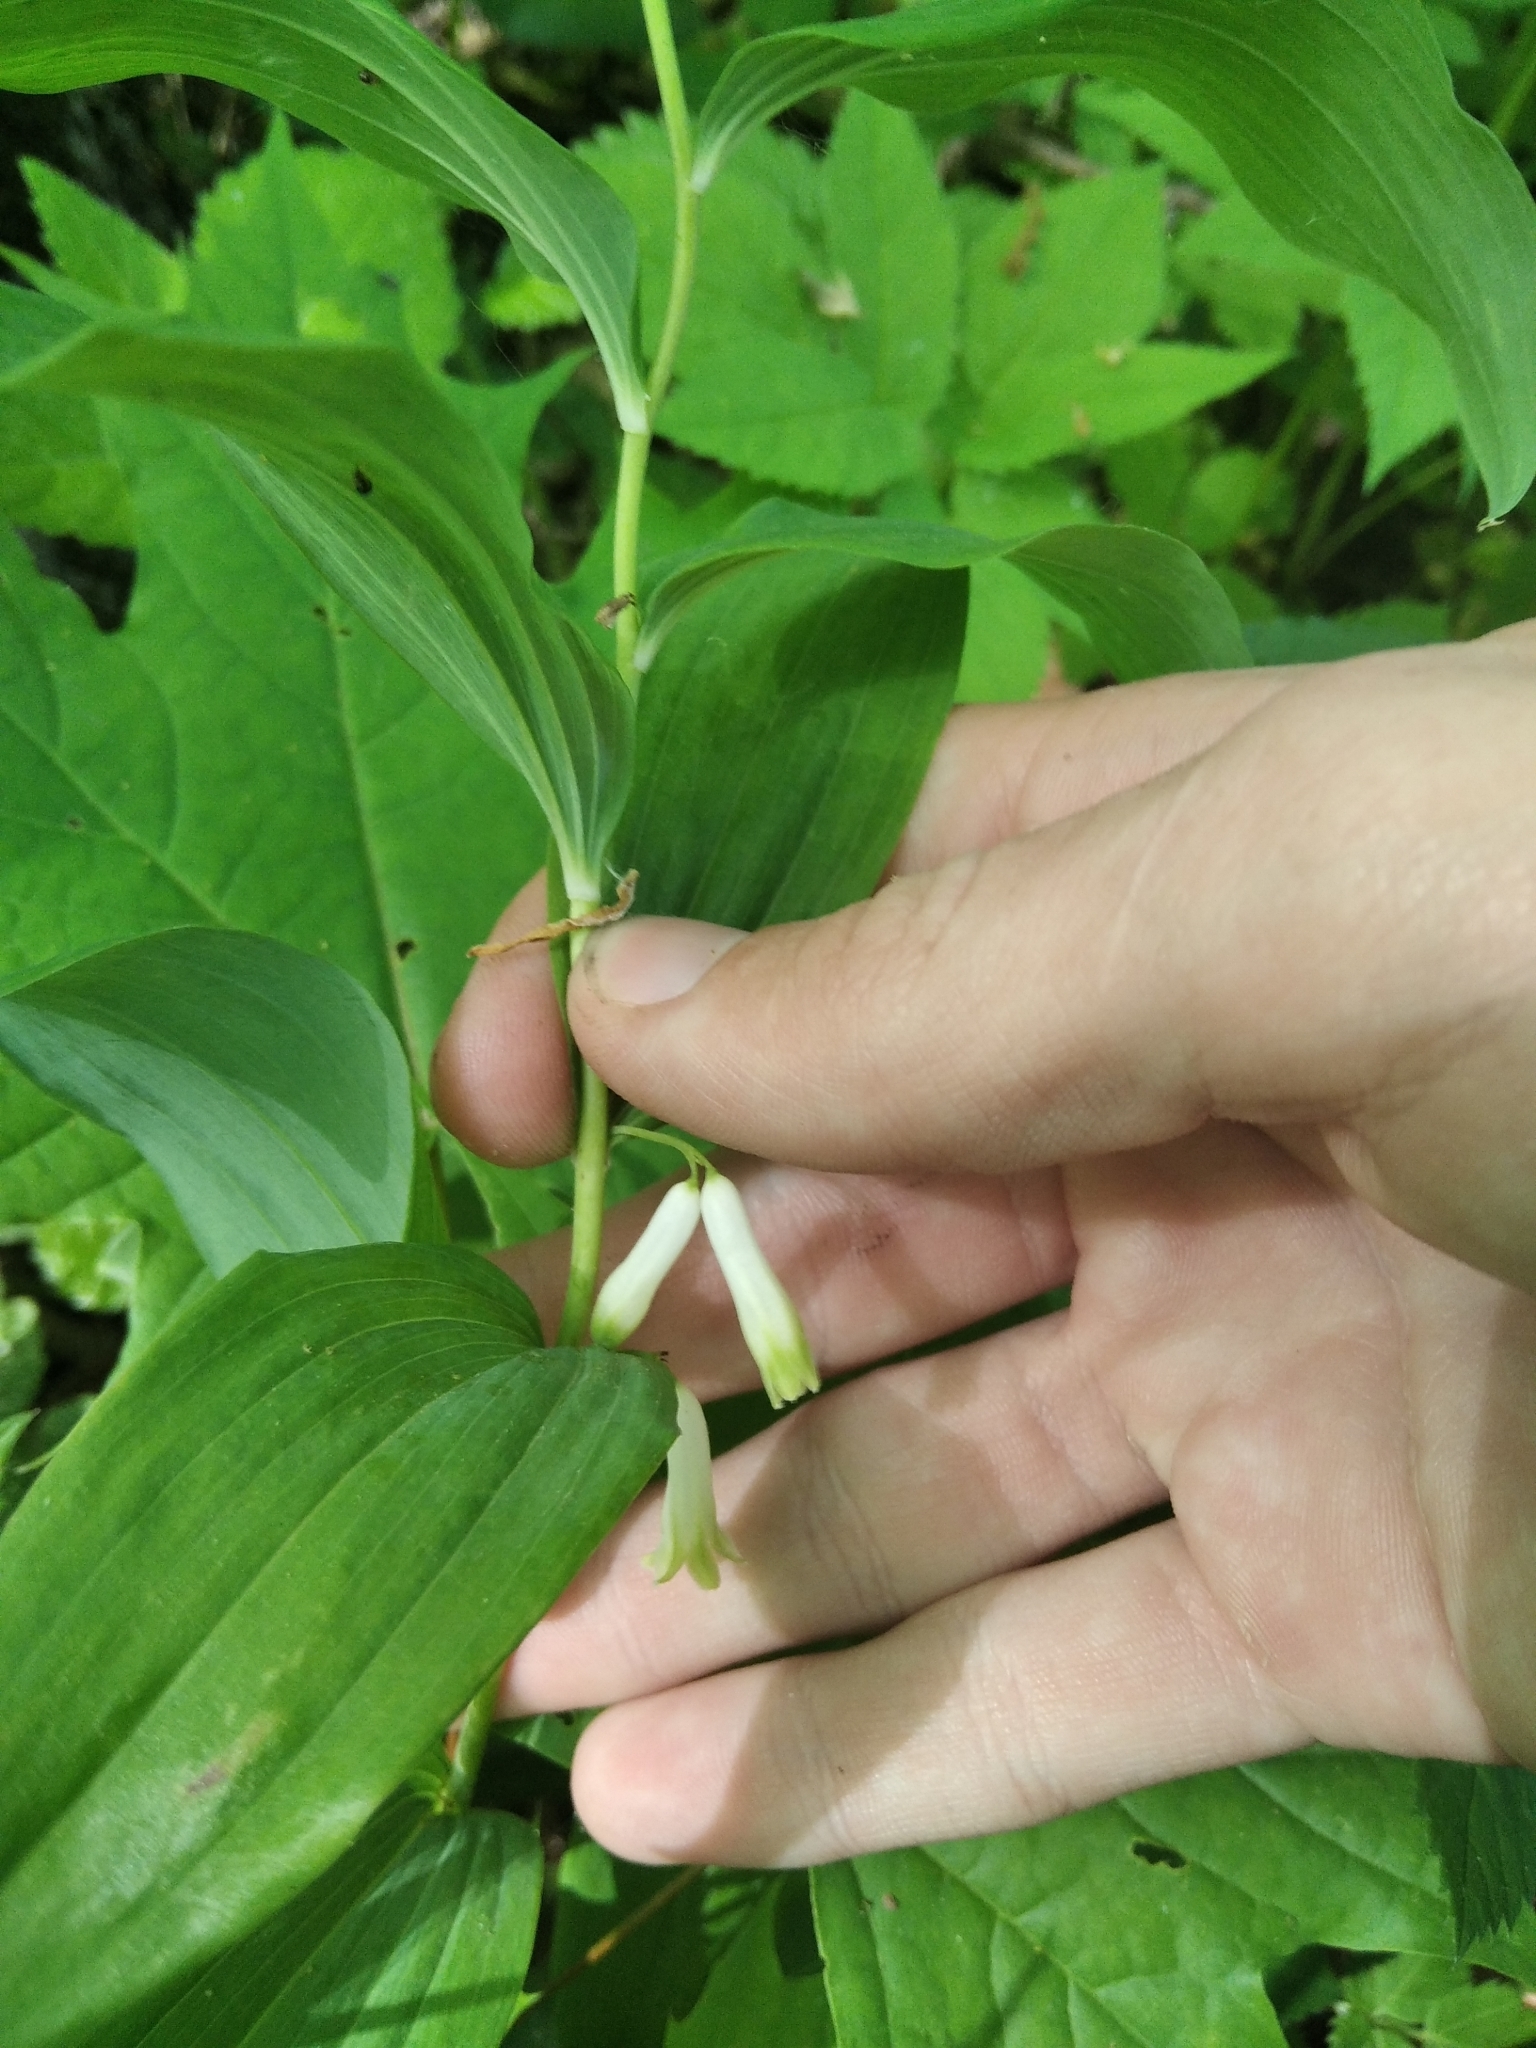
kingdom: Plantae
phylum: Tracheophyta
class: Liliopsida
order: Asparagales
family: Asparagaceae
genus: Polygonatum
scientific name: Polygonatum multiflorum
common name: Solomon's-seal
